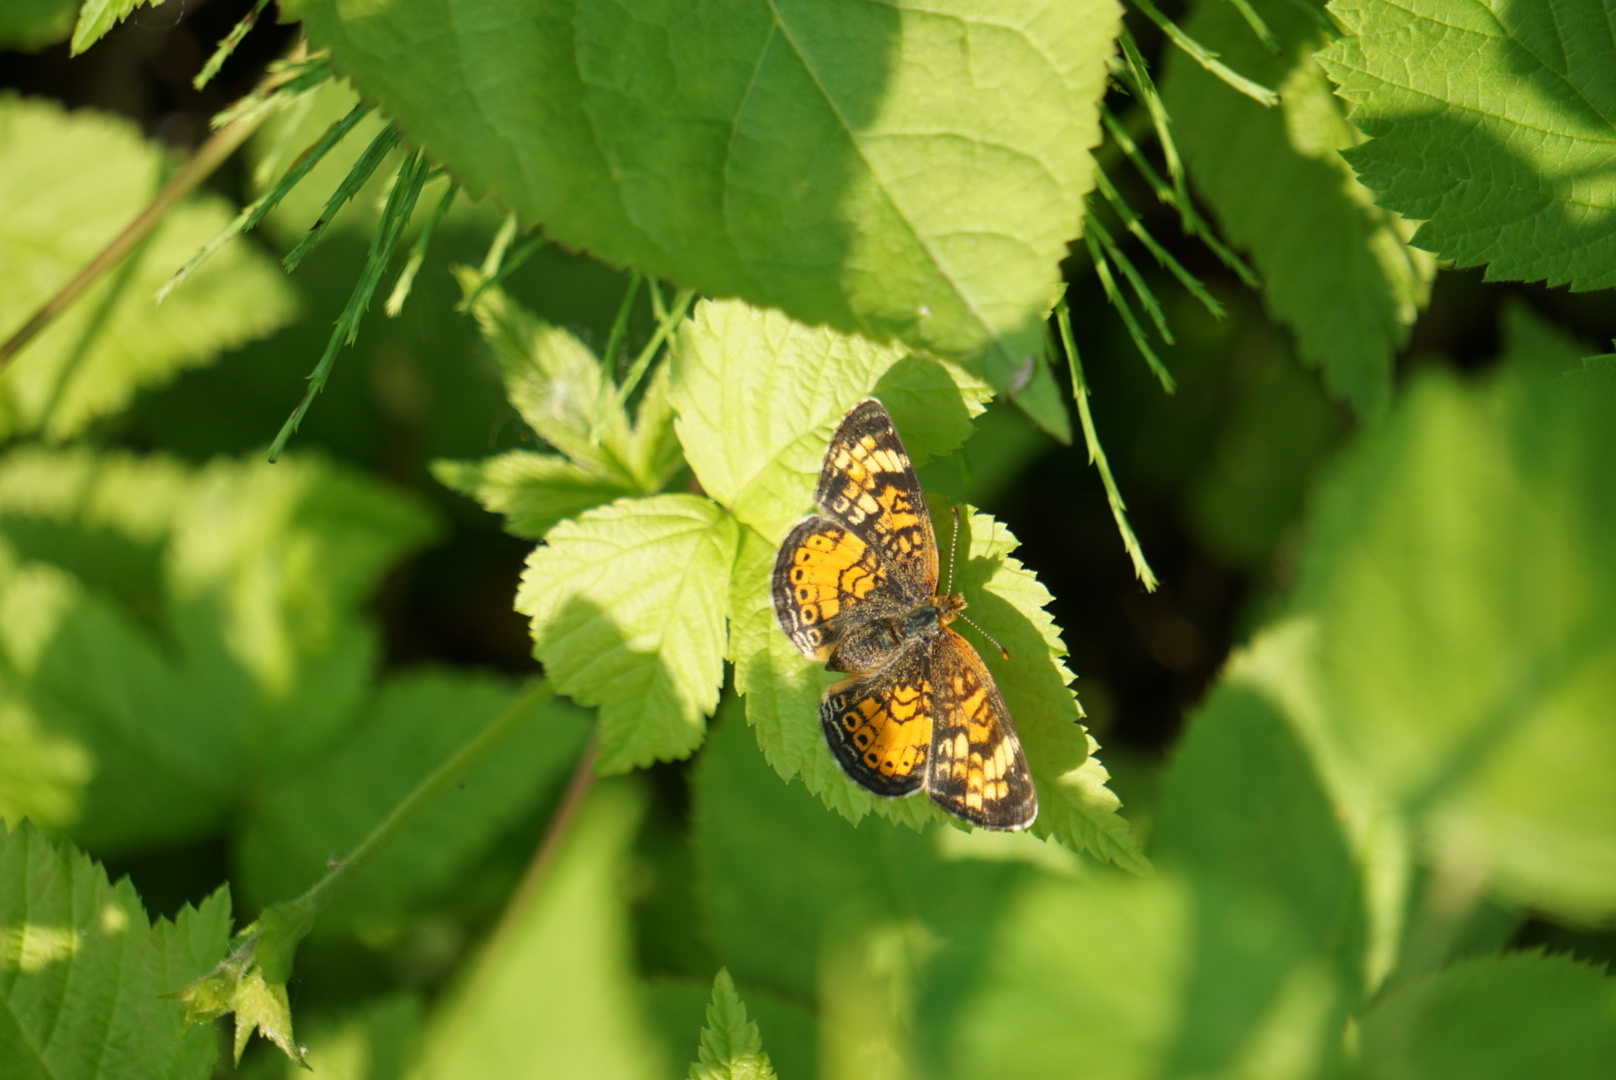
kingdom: Animalia
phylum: Arthropoda
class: Insecta
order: Lepidoptera
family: Nymphalidae
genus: Phyciodes
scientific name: Phyciodes tharos
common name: Pearl crescent
